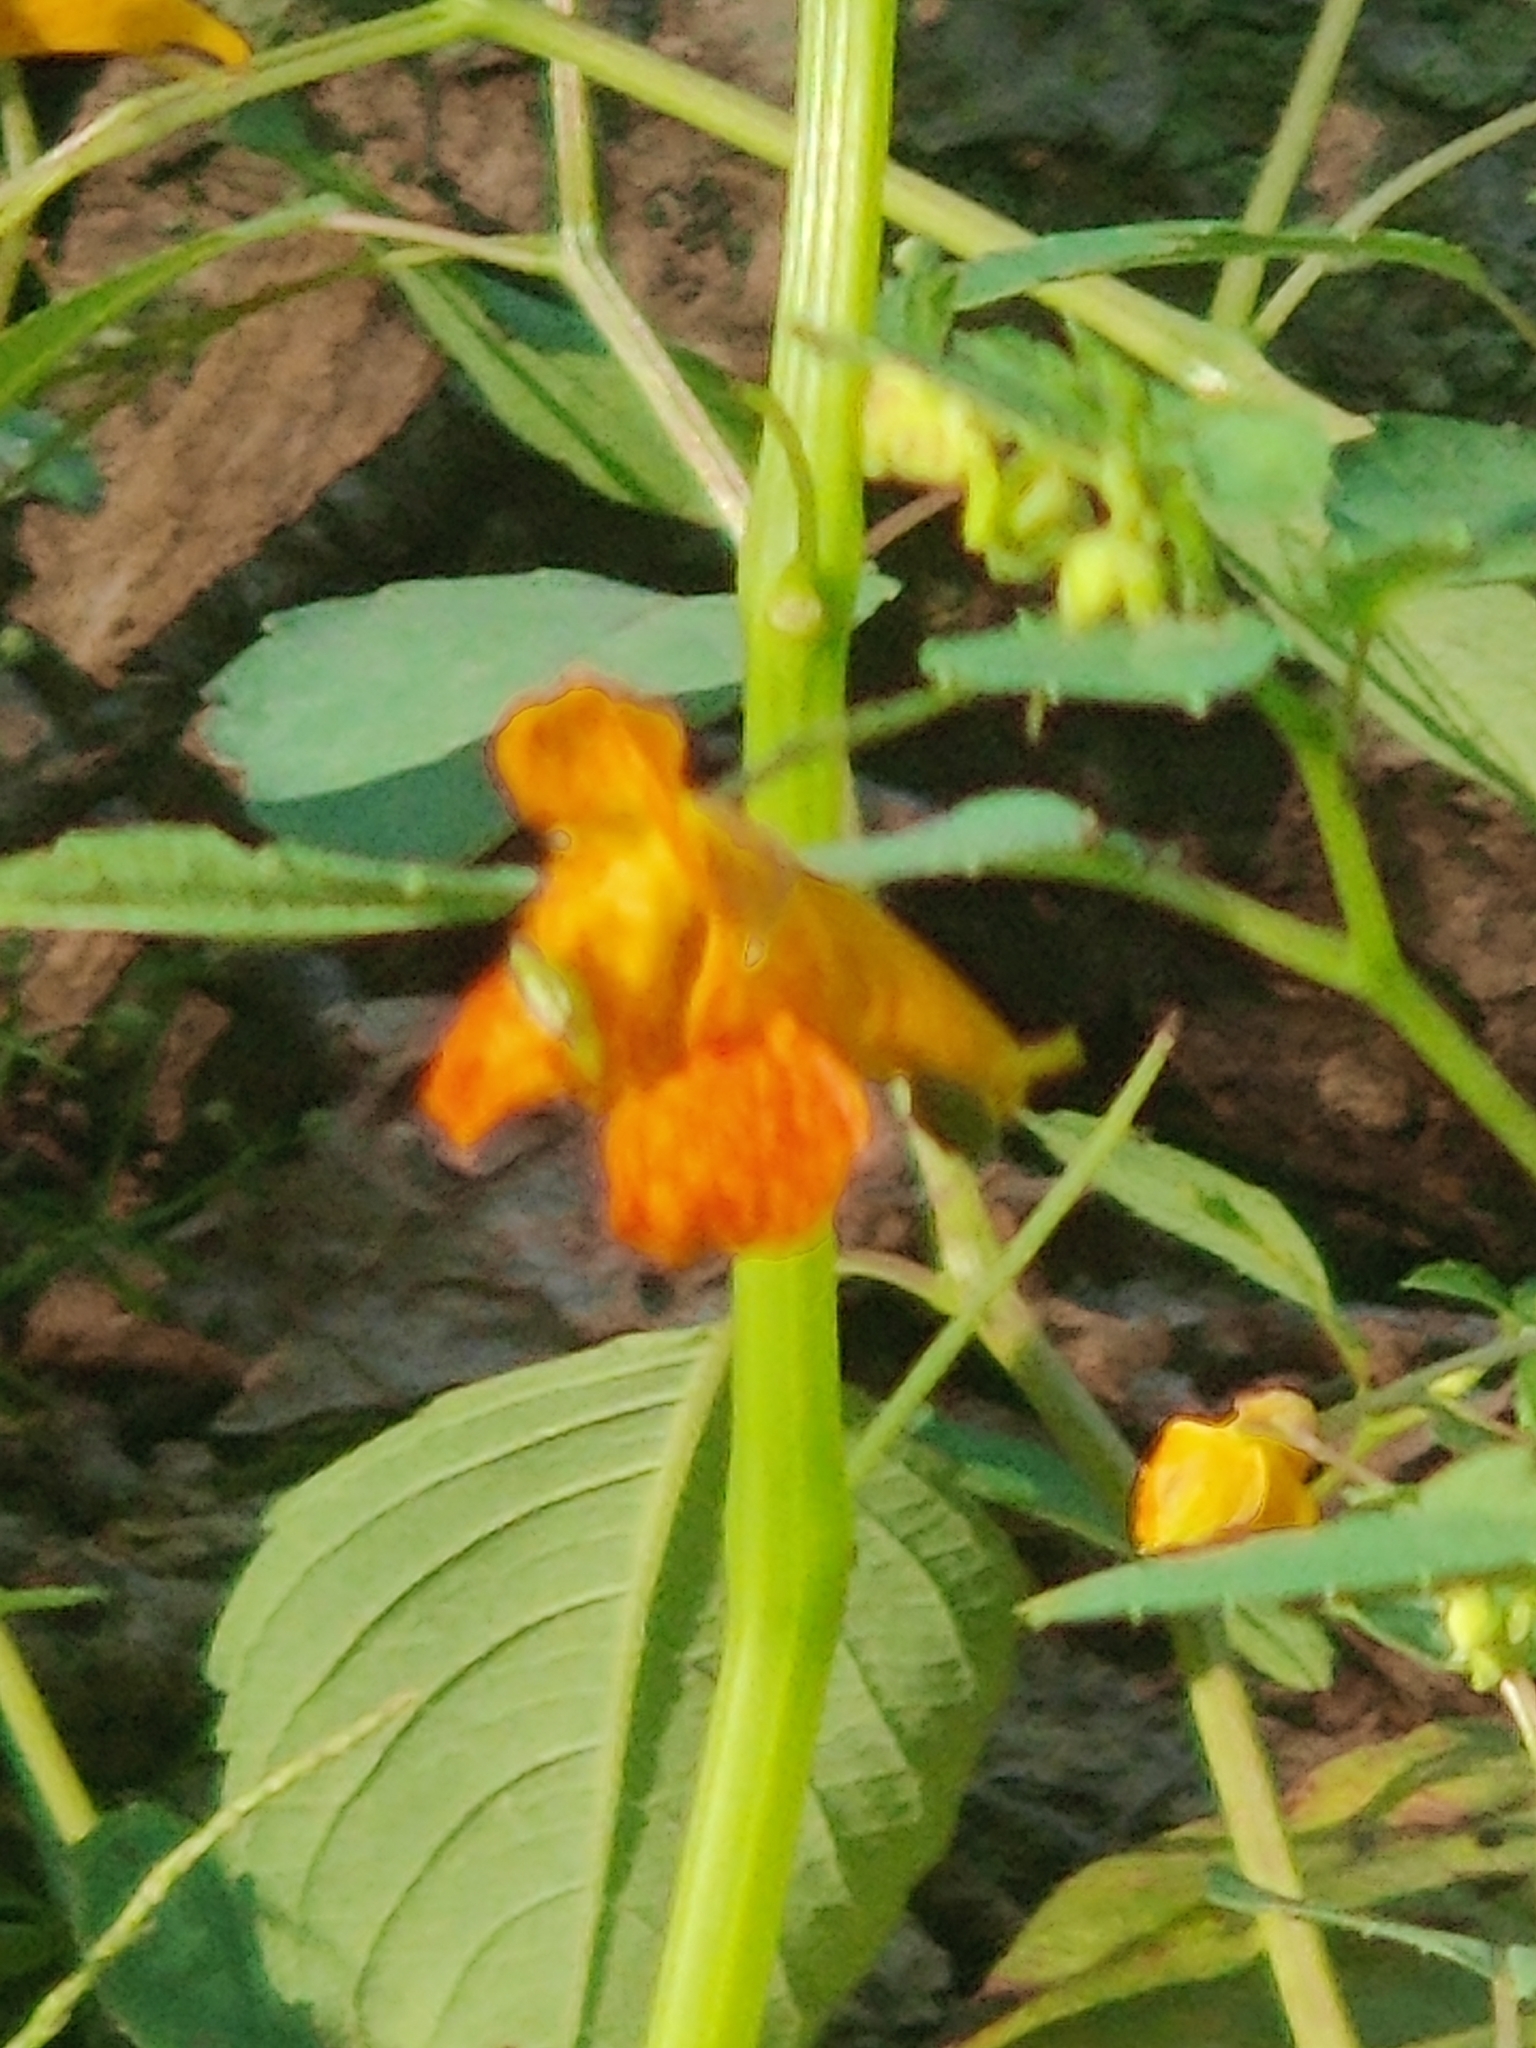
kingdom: Plantae
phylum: Tracheophyta
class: Magnoliopsida
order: Ericales
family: Balsaminaceae
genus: Impatiens
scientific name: Impatiens capensis
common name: Orange balsam
